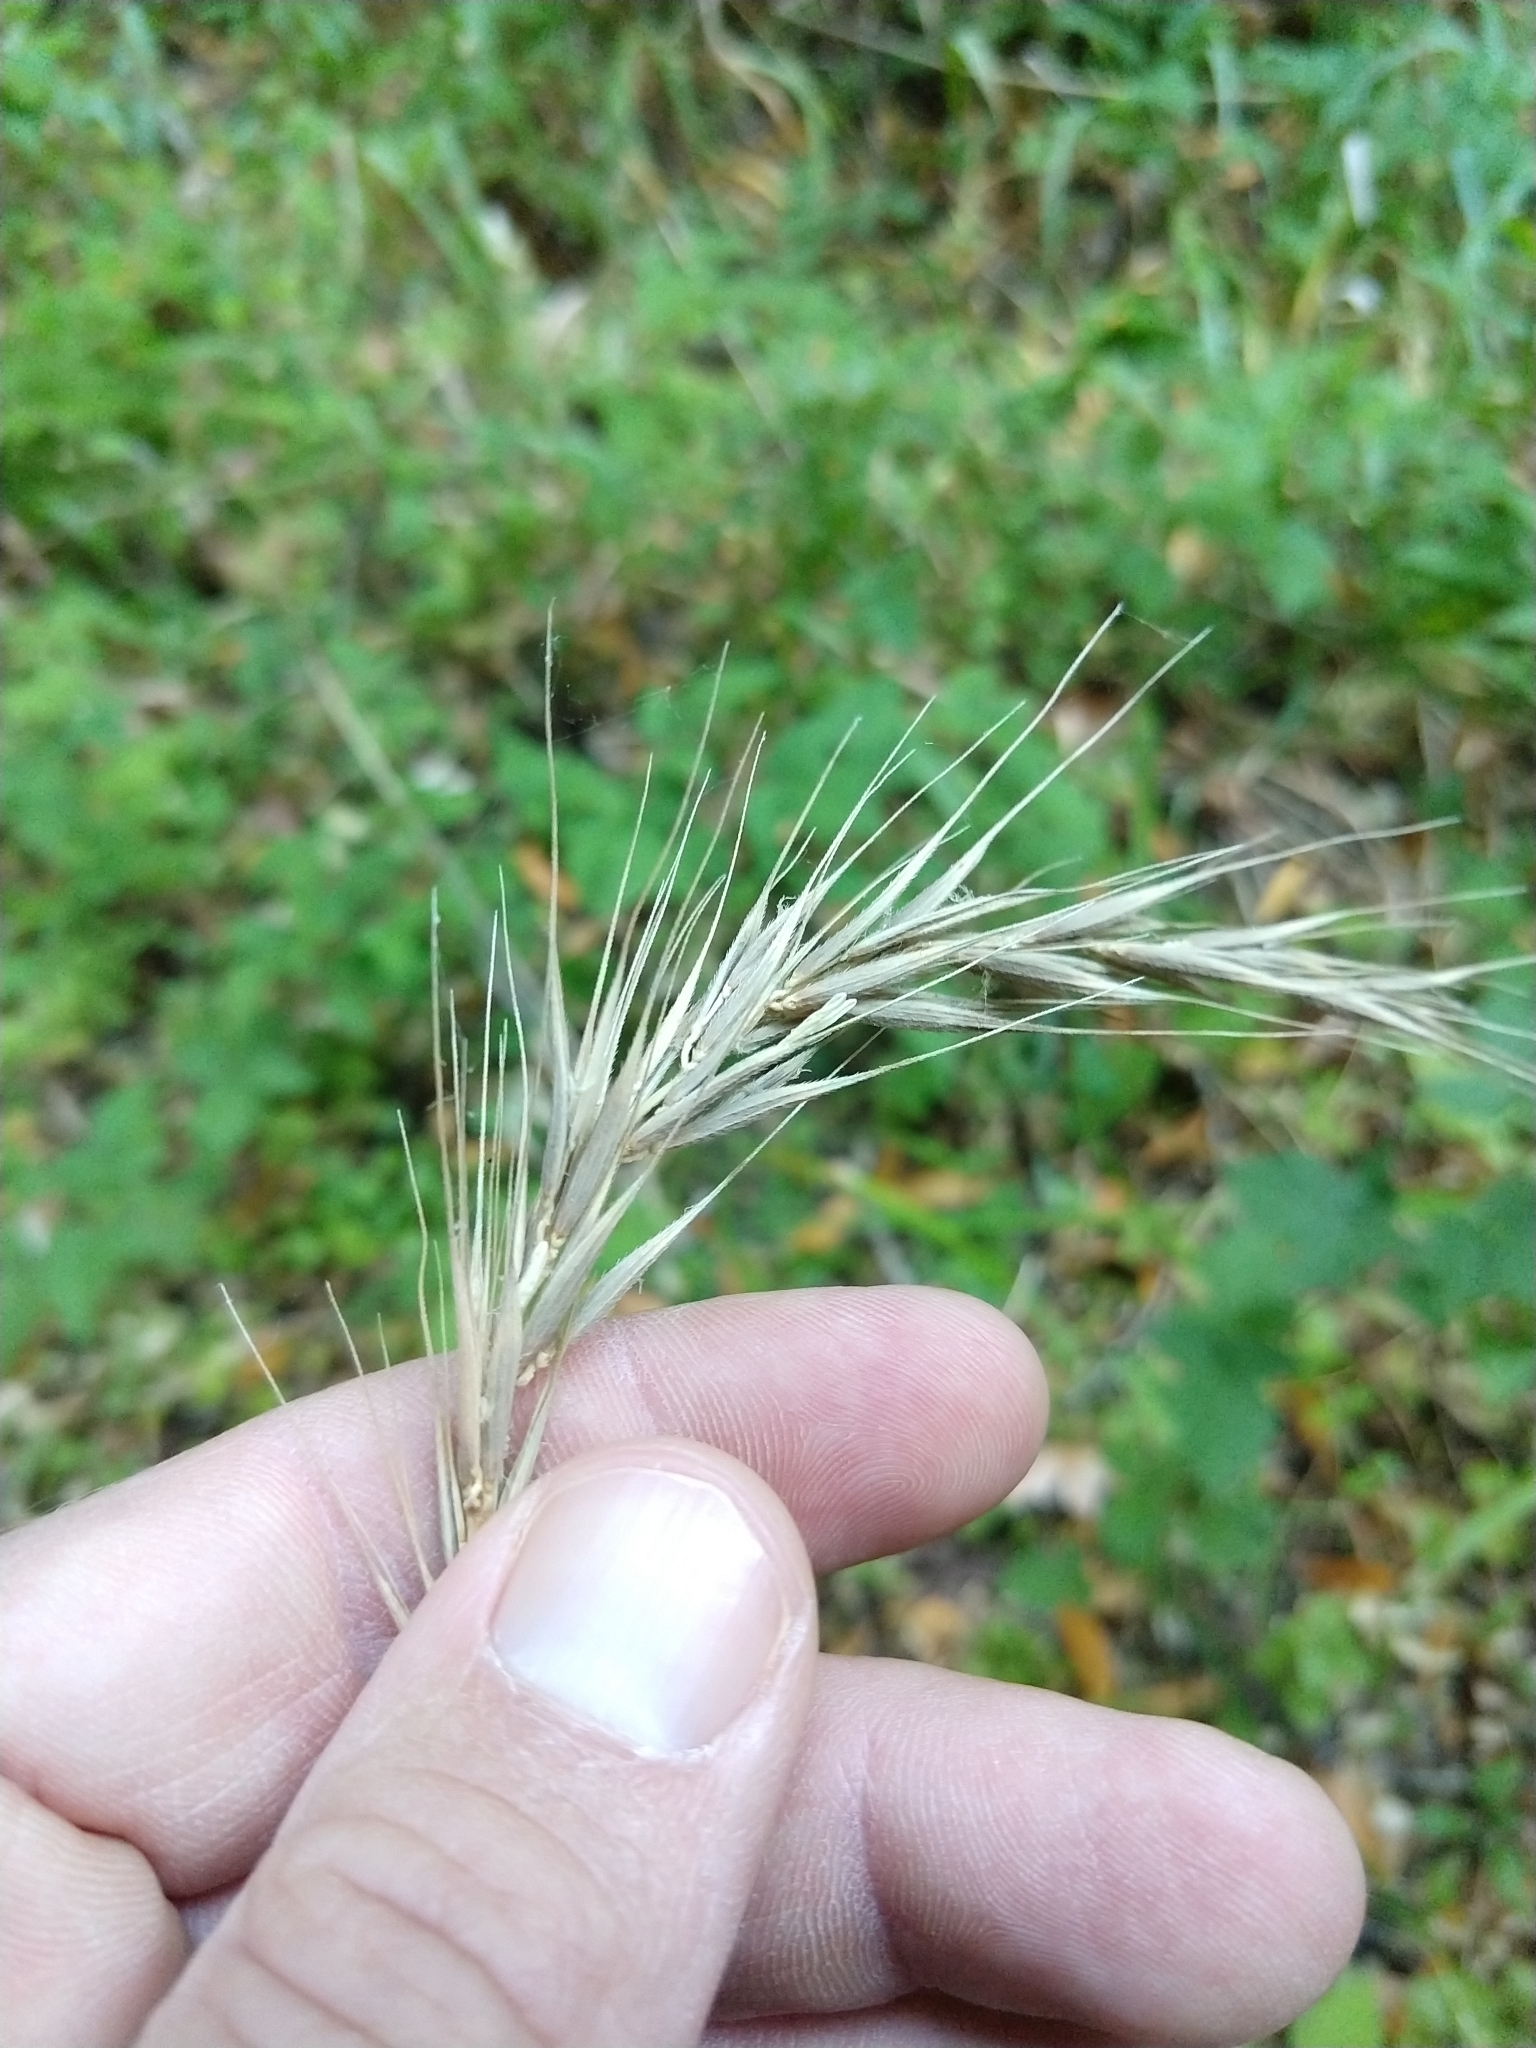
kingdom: Plantae
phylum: Tracheophyta
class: Liliopsida
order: Poales
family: Poaceae
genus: Elymus
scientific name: Elymus californicus
